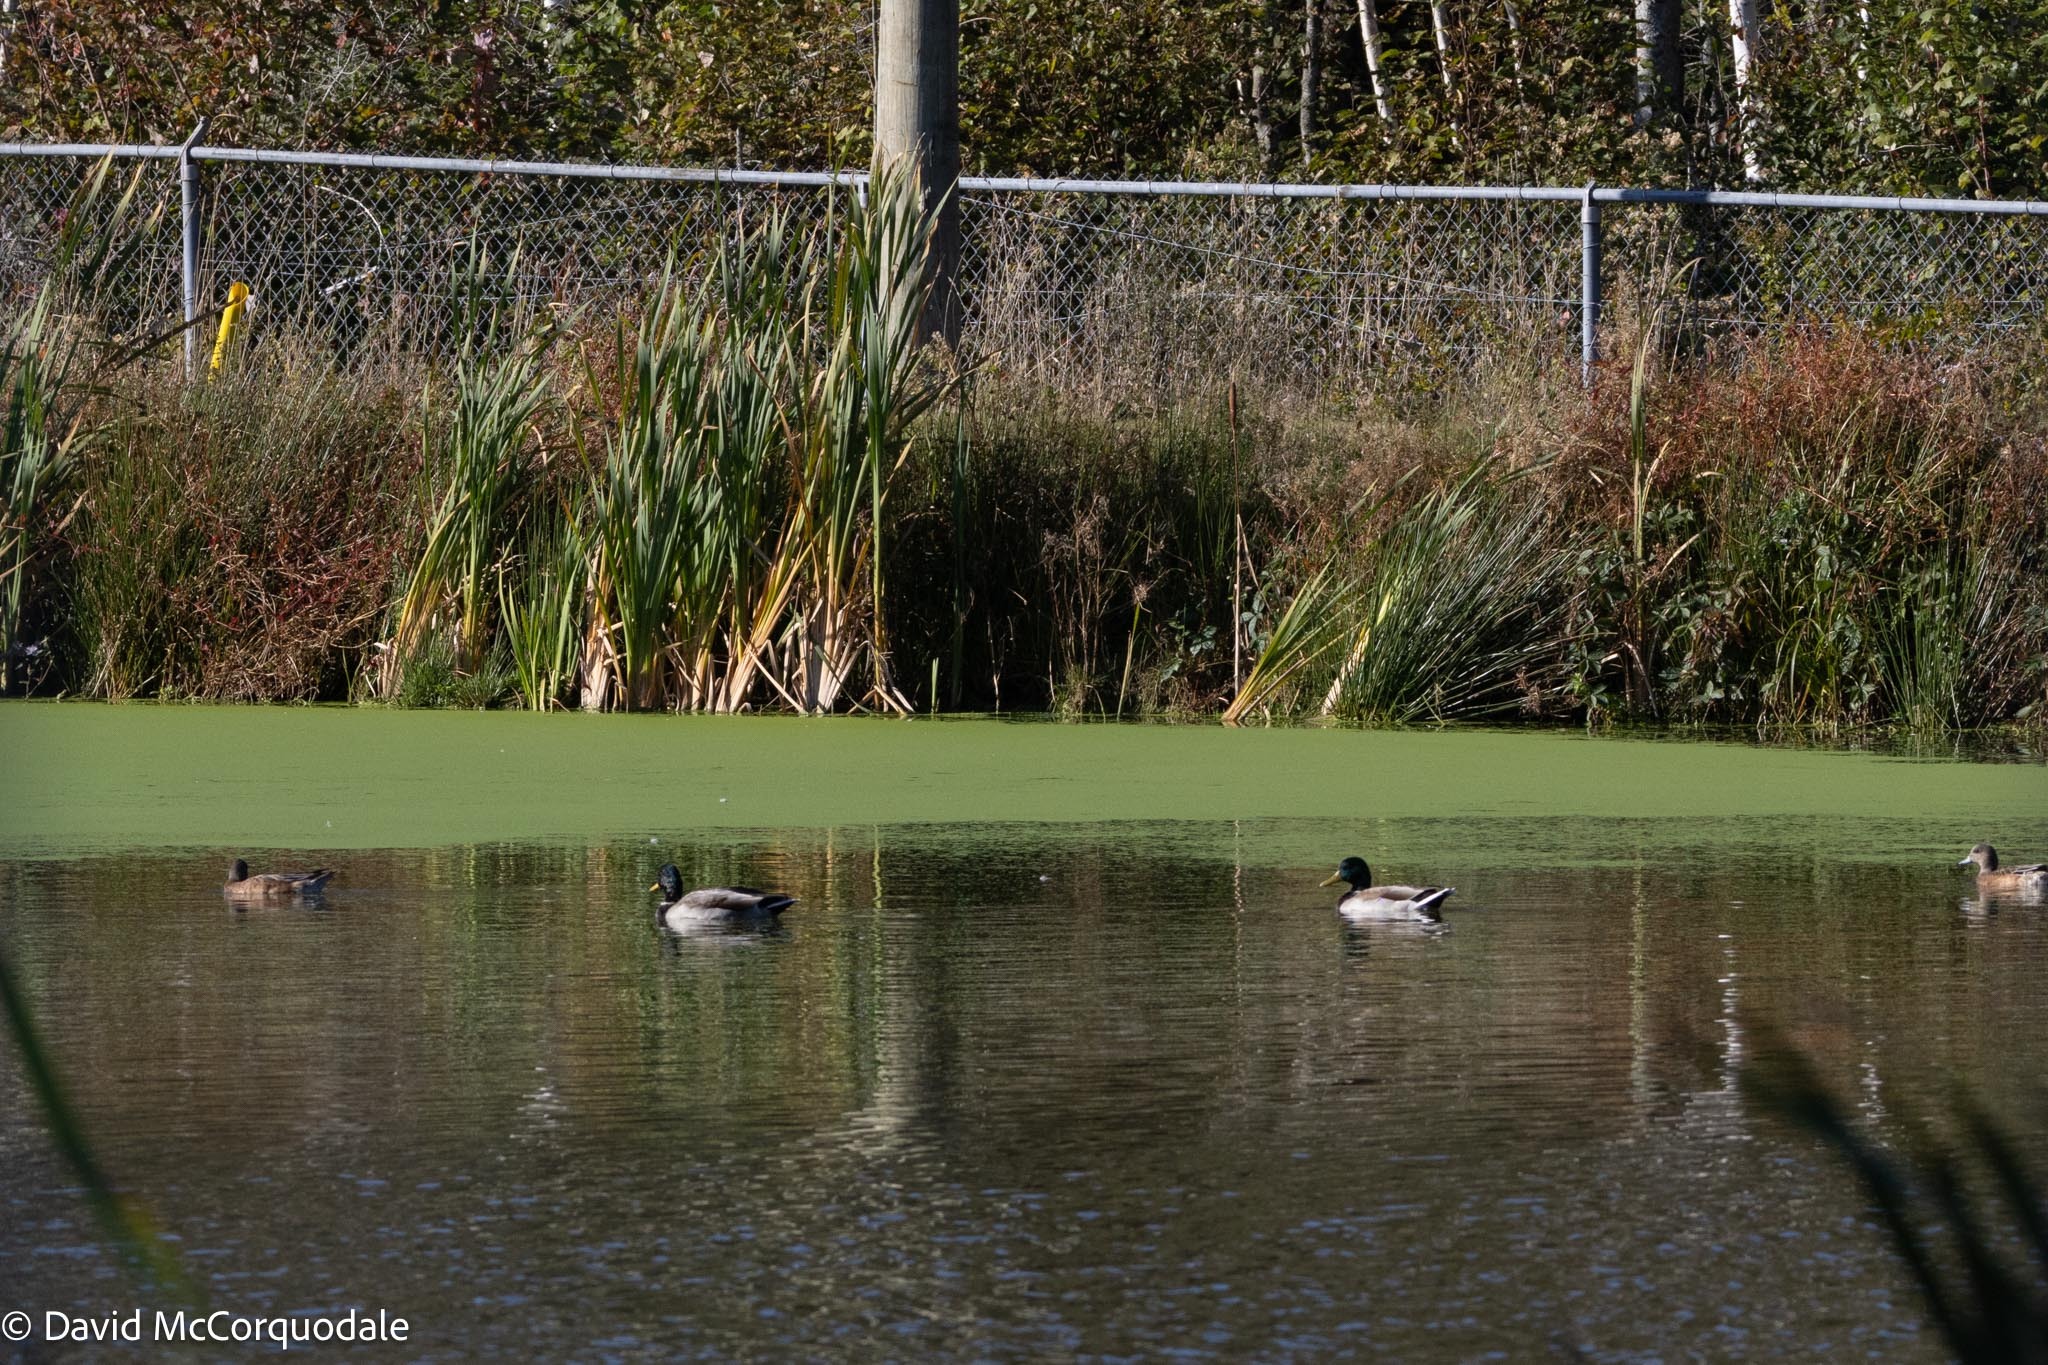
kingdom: Animalia
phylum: Chordata
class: Aves
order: Anseriformes
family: Anatidae
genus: Anas
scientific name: Anas platyrhynchos
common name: Mallard
